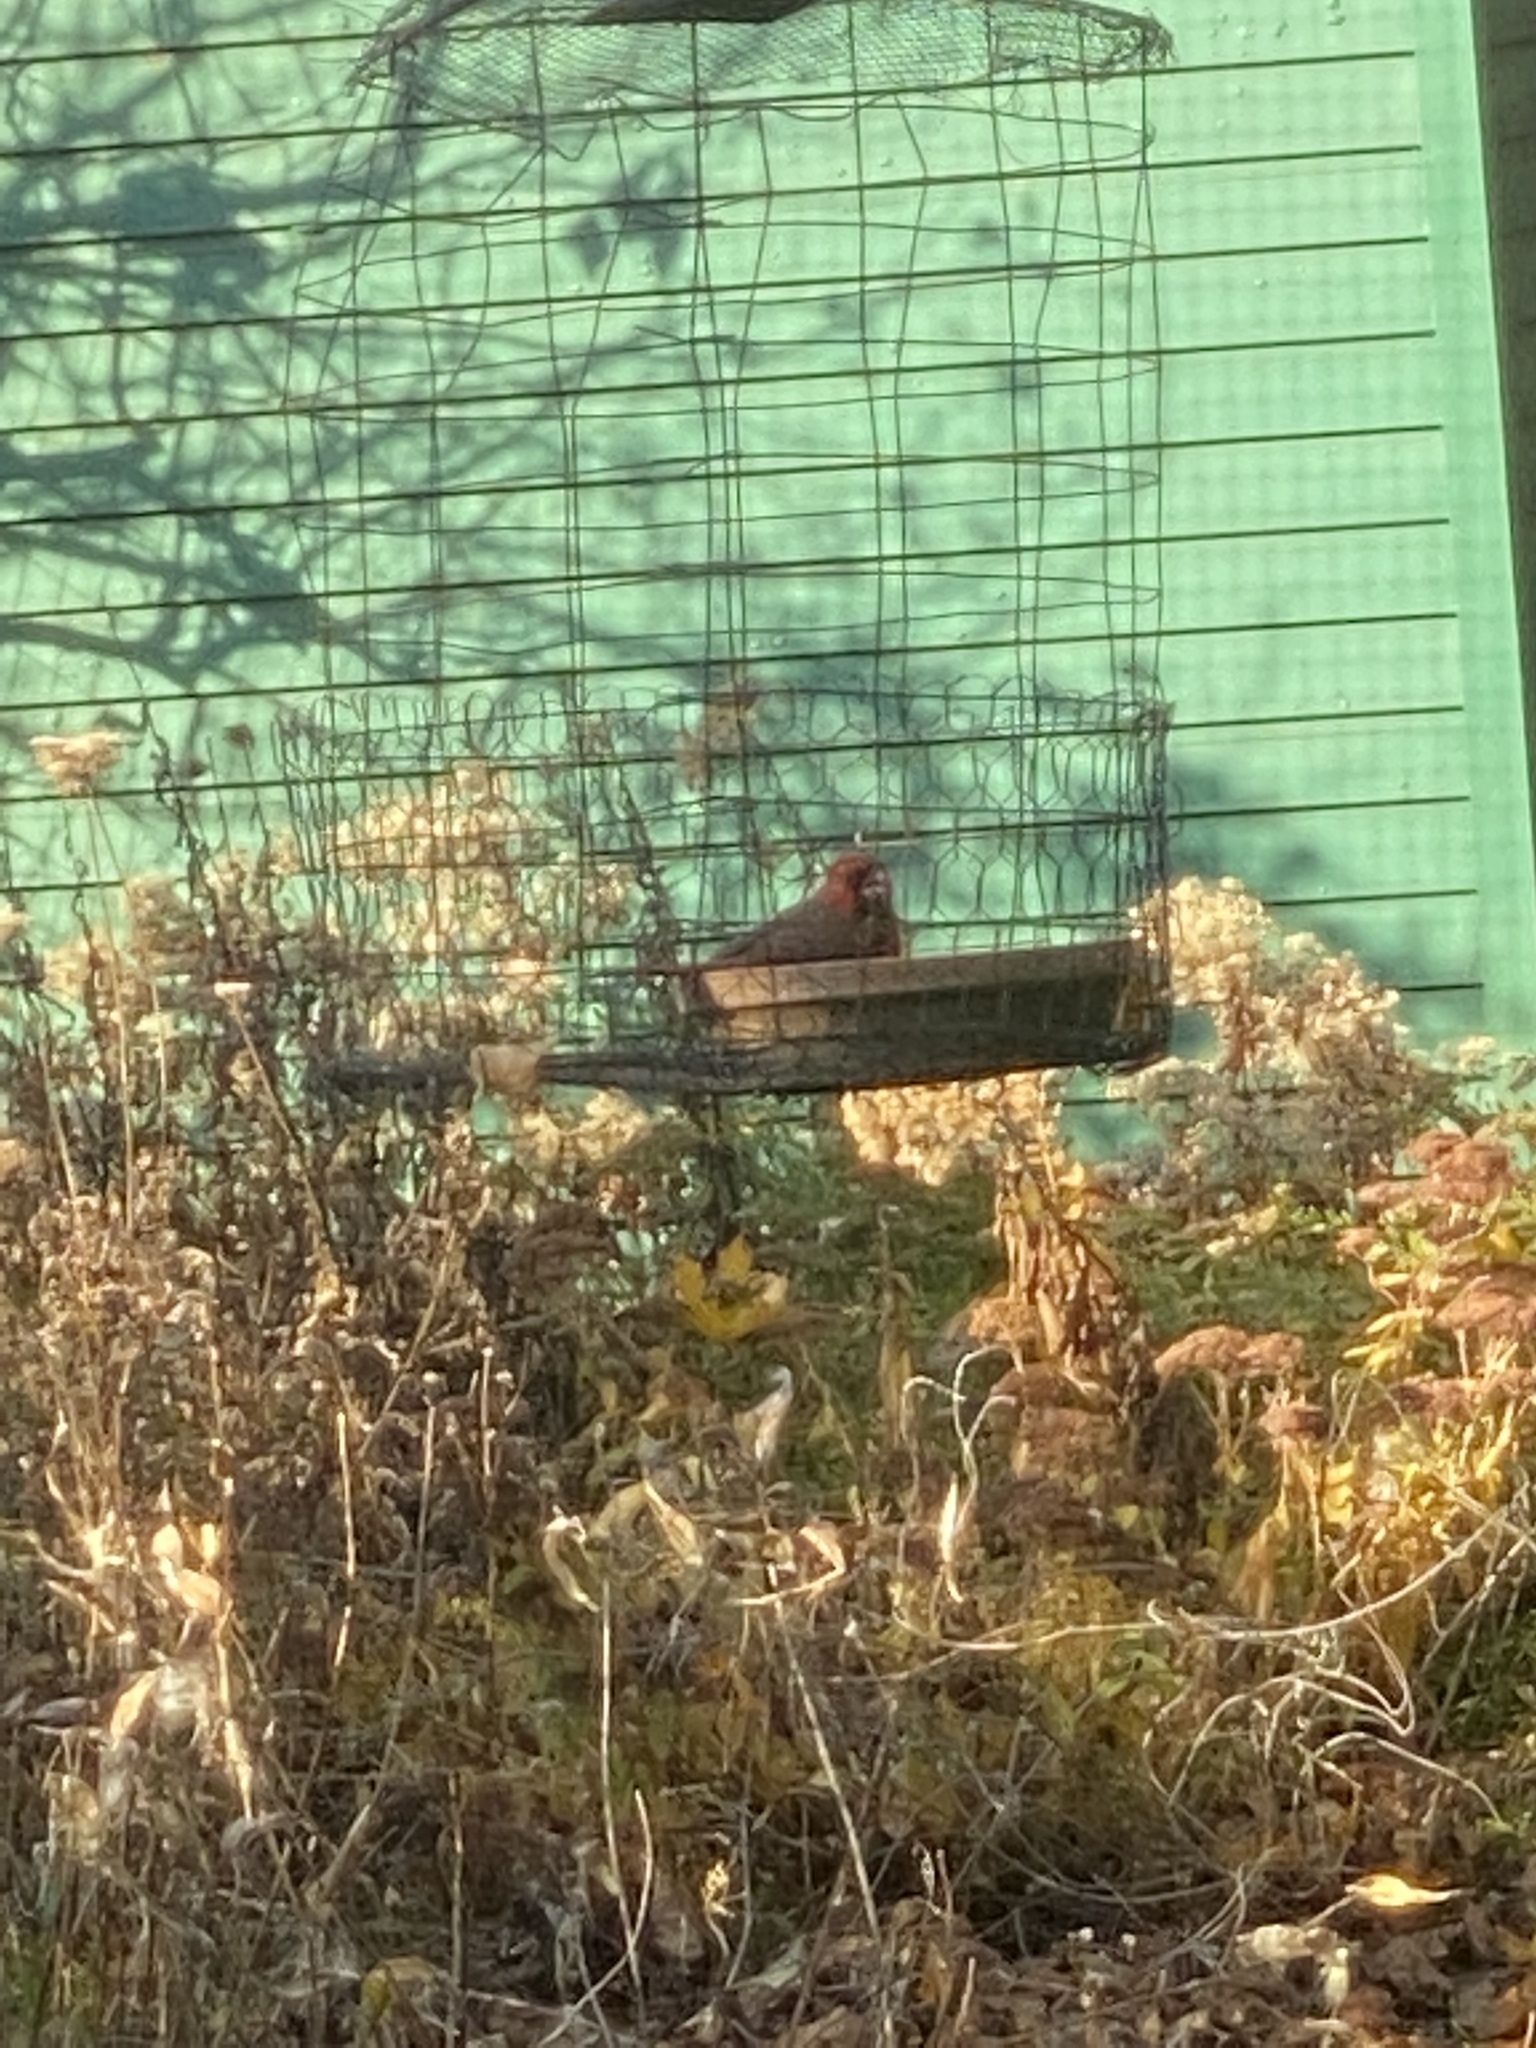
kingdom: Animalia
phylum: Chordata
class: Aves
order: Passeriformes
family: Cardinalidae
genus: Cardinalis
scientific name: Cardinalis cardinalis
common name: Northern cardinal
